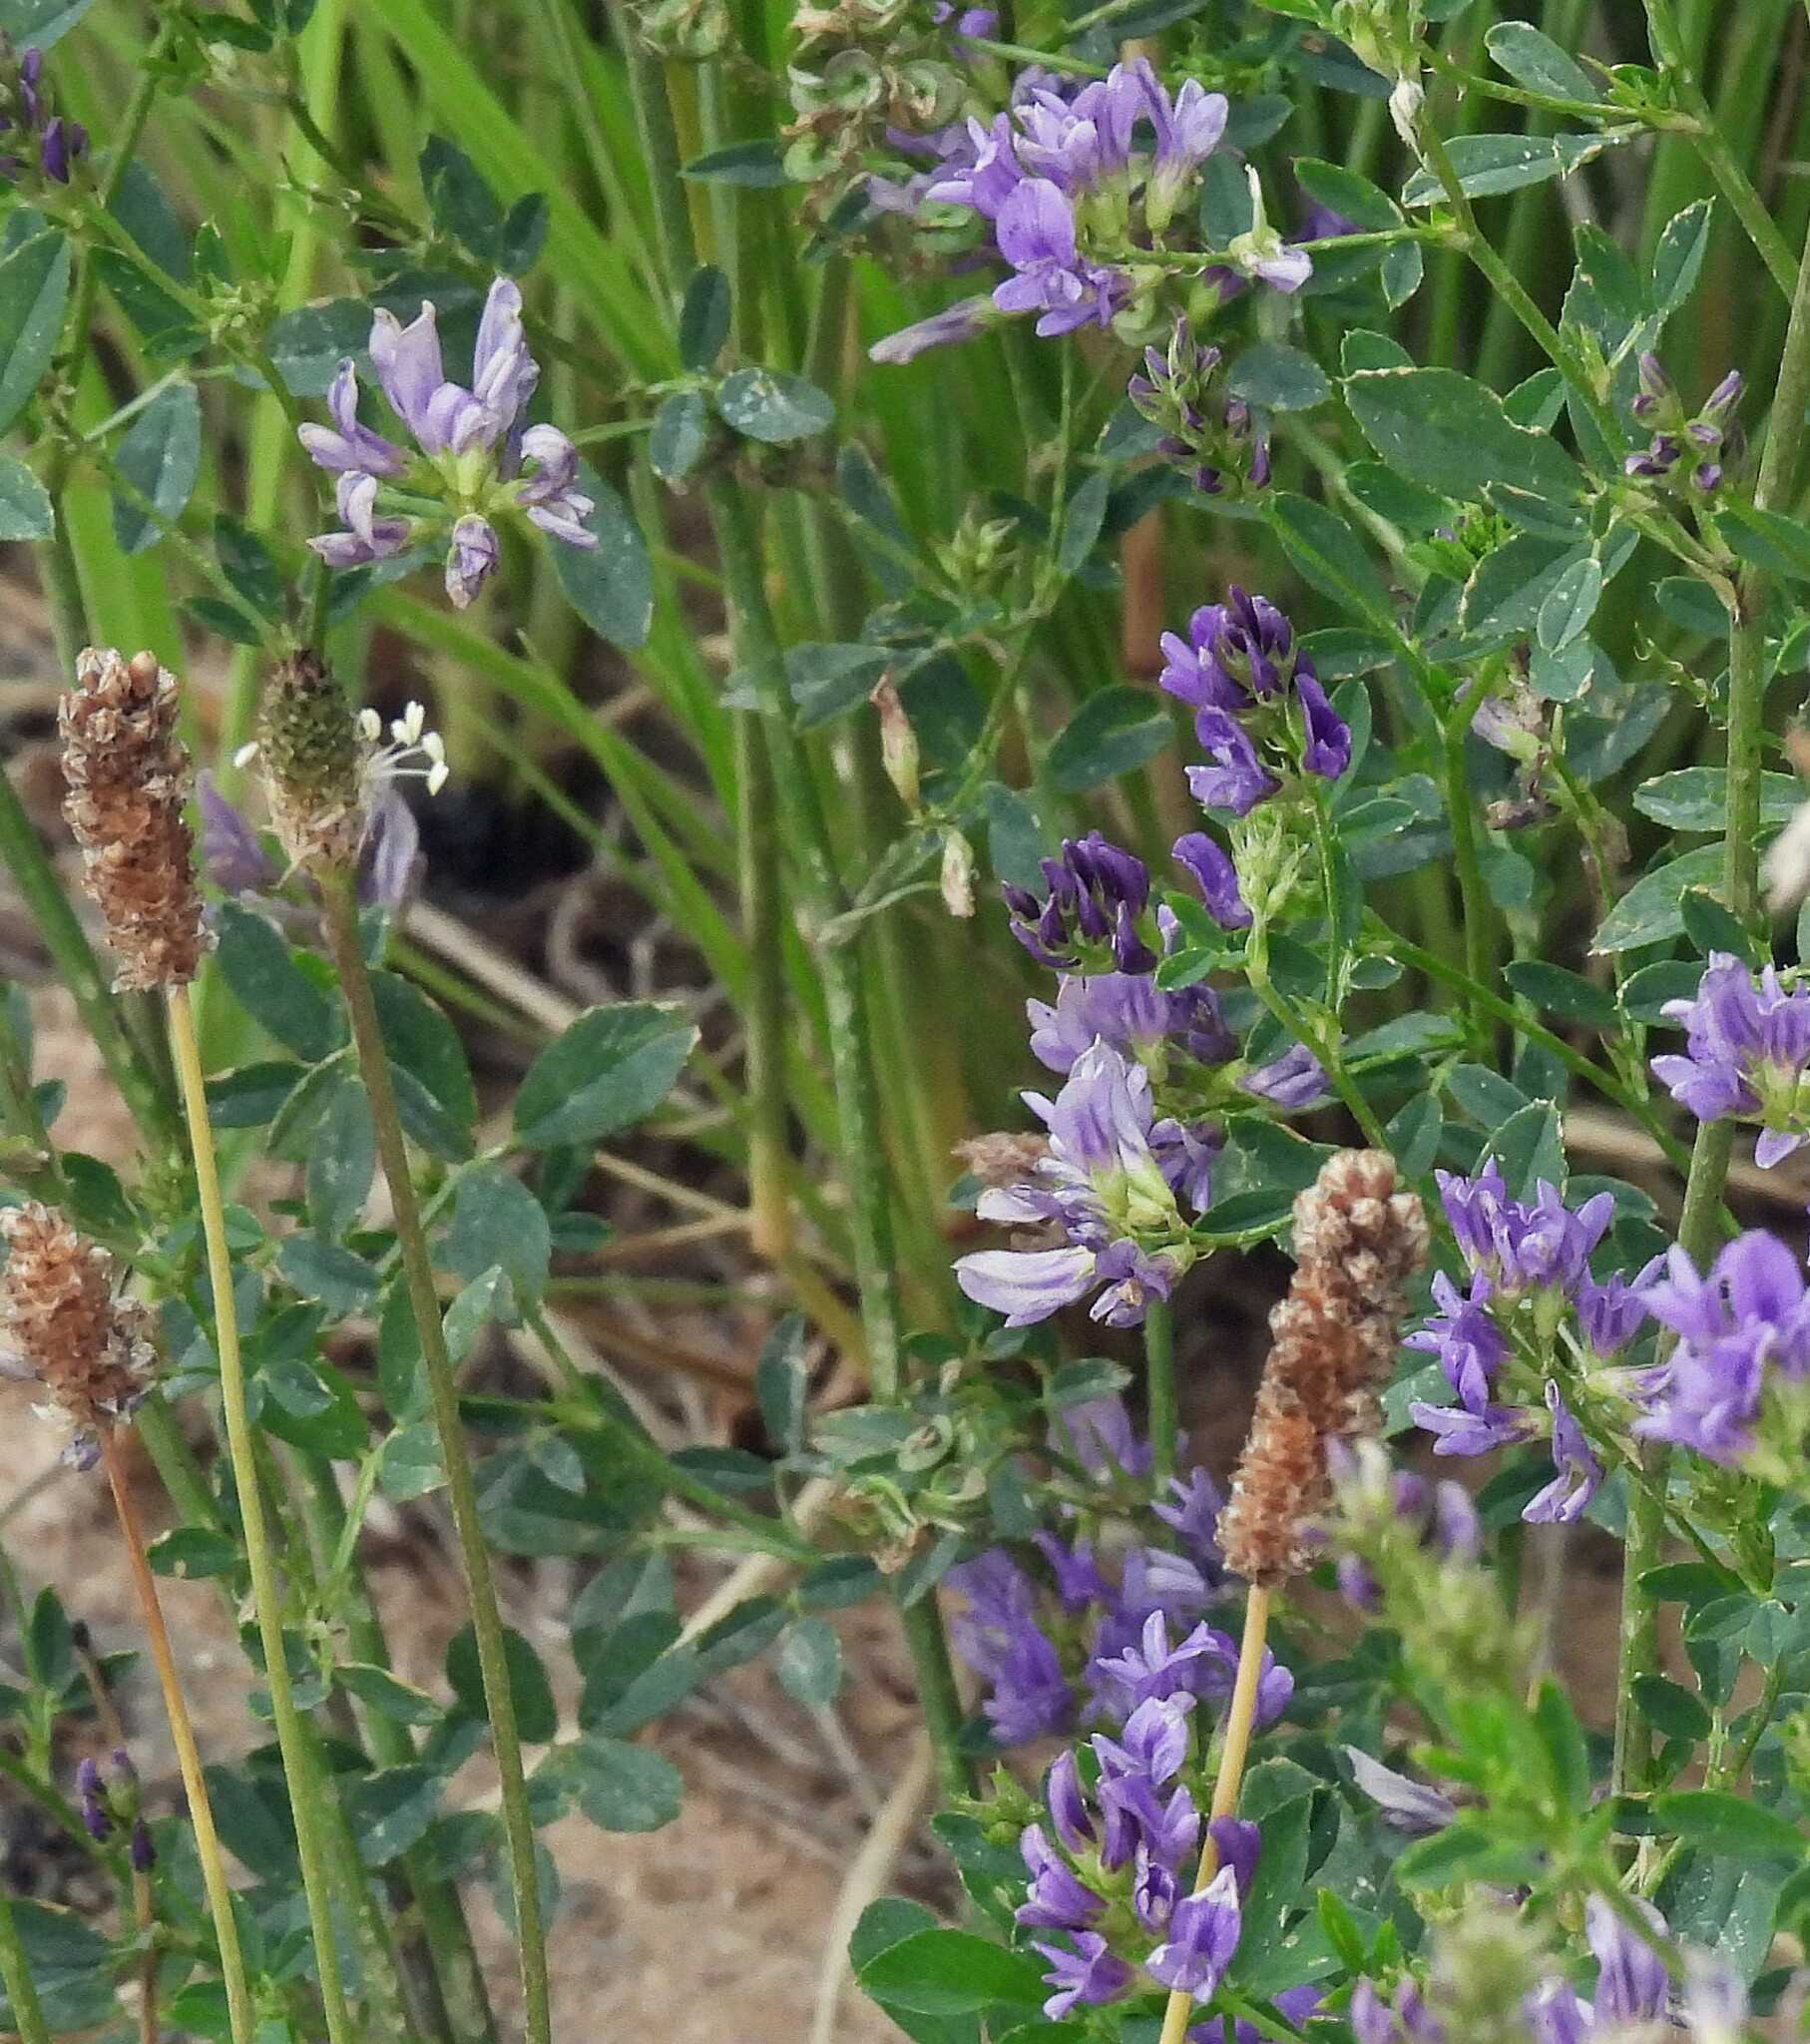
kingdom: Plantae
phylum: Tracheophyta
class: Magnoliopsida
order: Fabales
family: Fabaceae
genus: Medicago
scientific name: Medicago sativa
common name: Alfalfa
